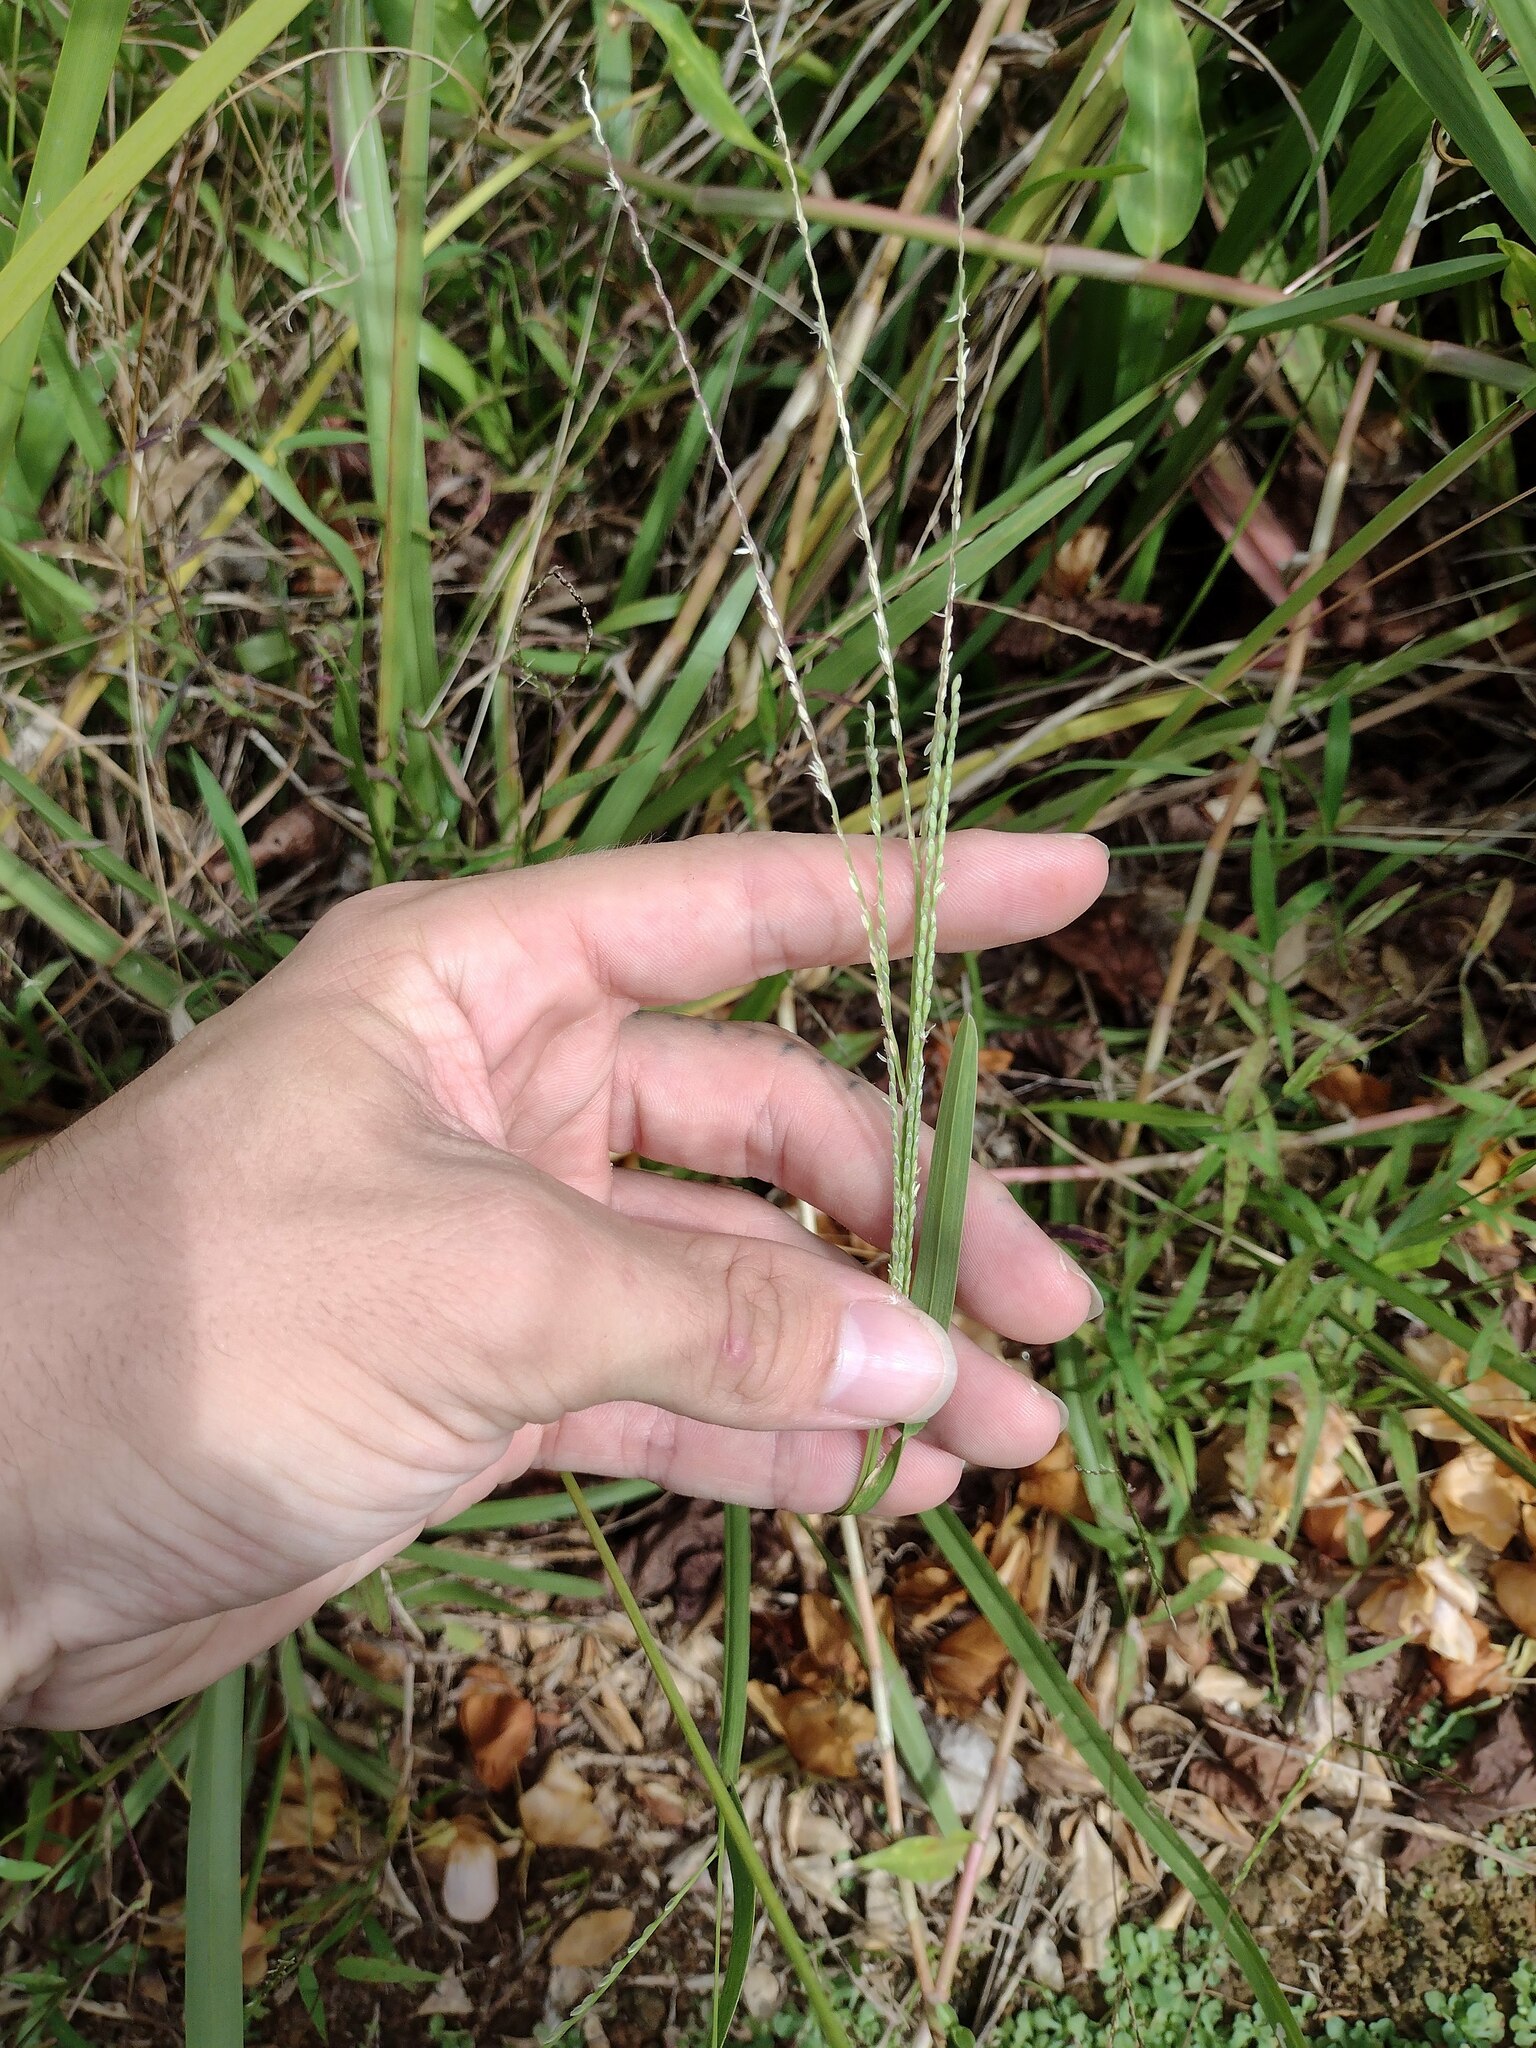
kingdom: Plantae
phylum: Tracheophyta
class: Liliopsida
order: Poales
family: Poaceae
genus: Axonopus
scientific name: Axonopus fissifolius
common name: Common carpetgrass
